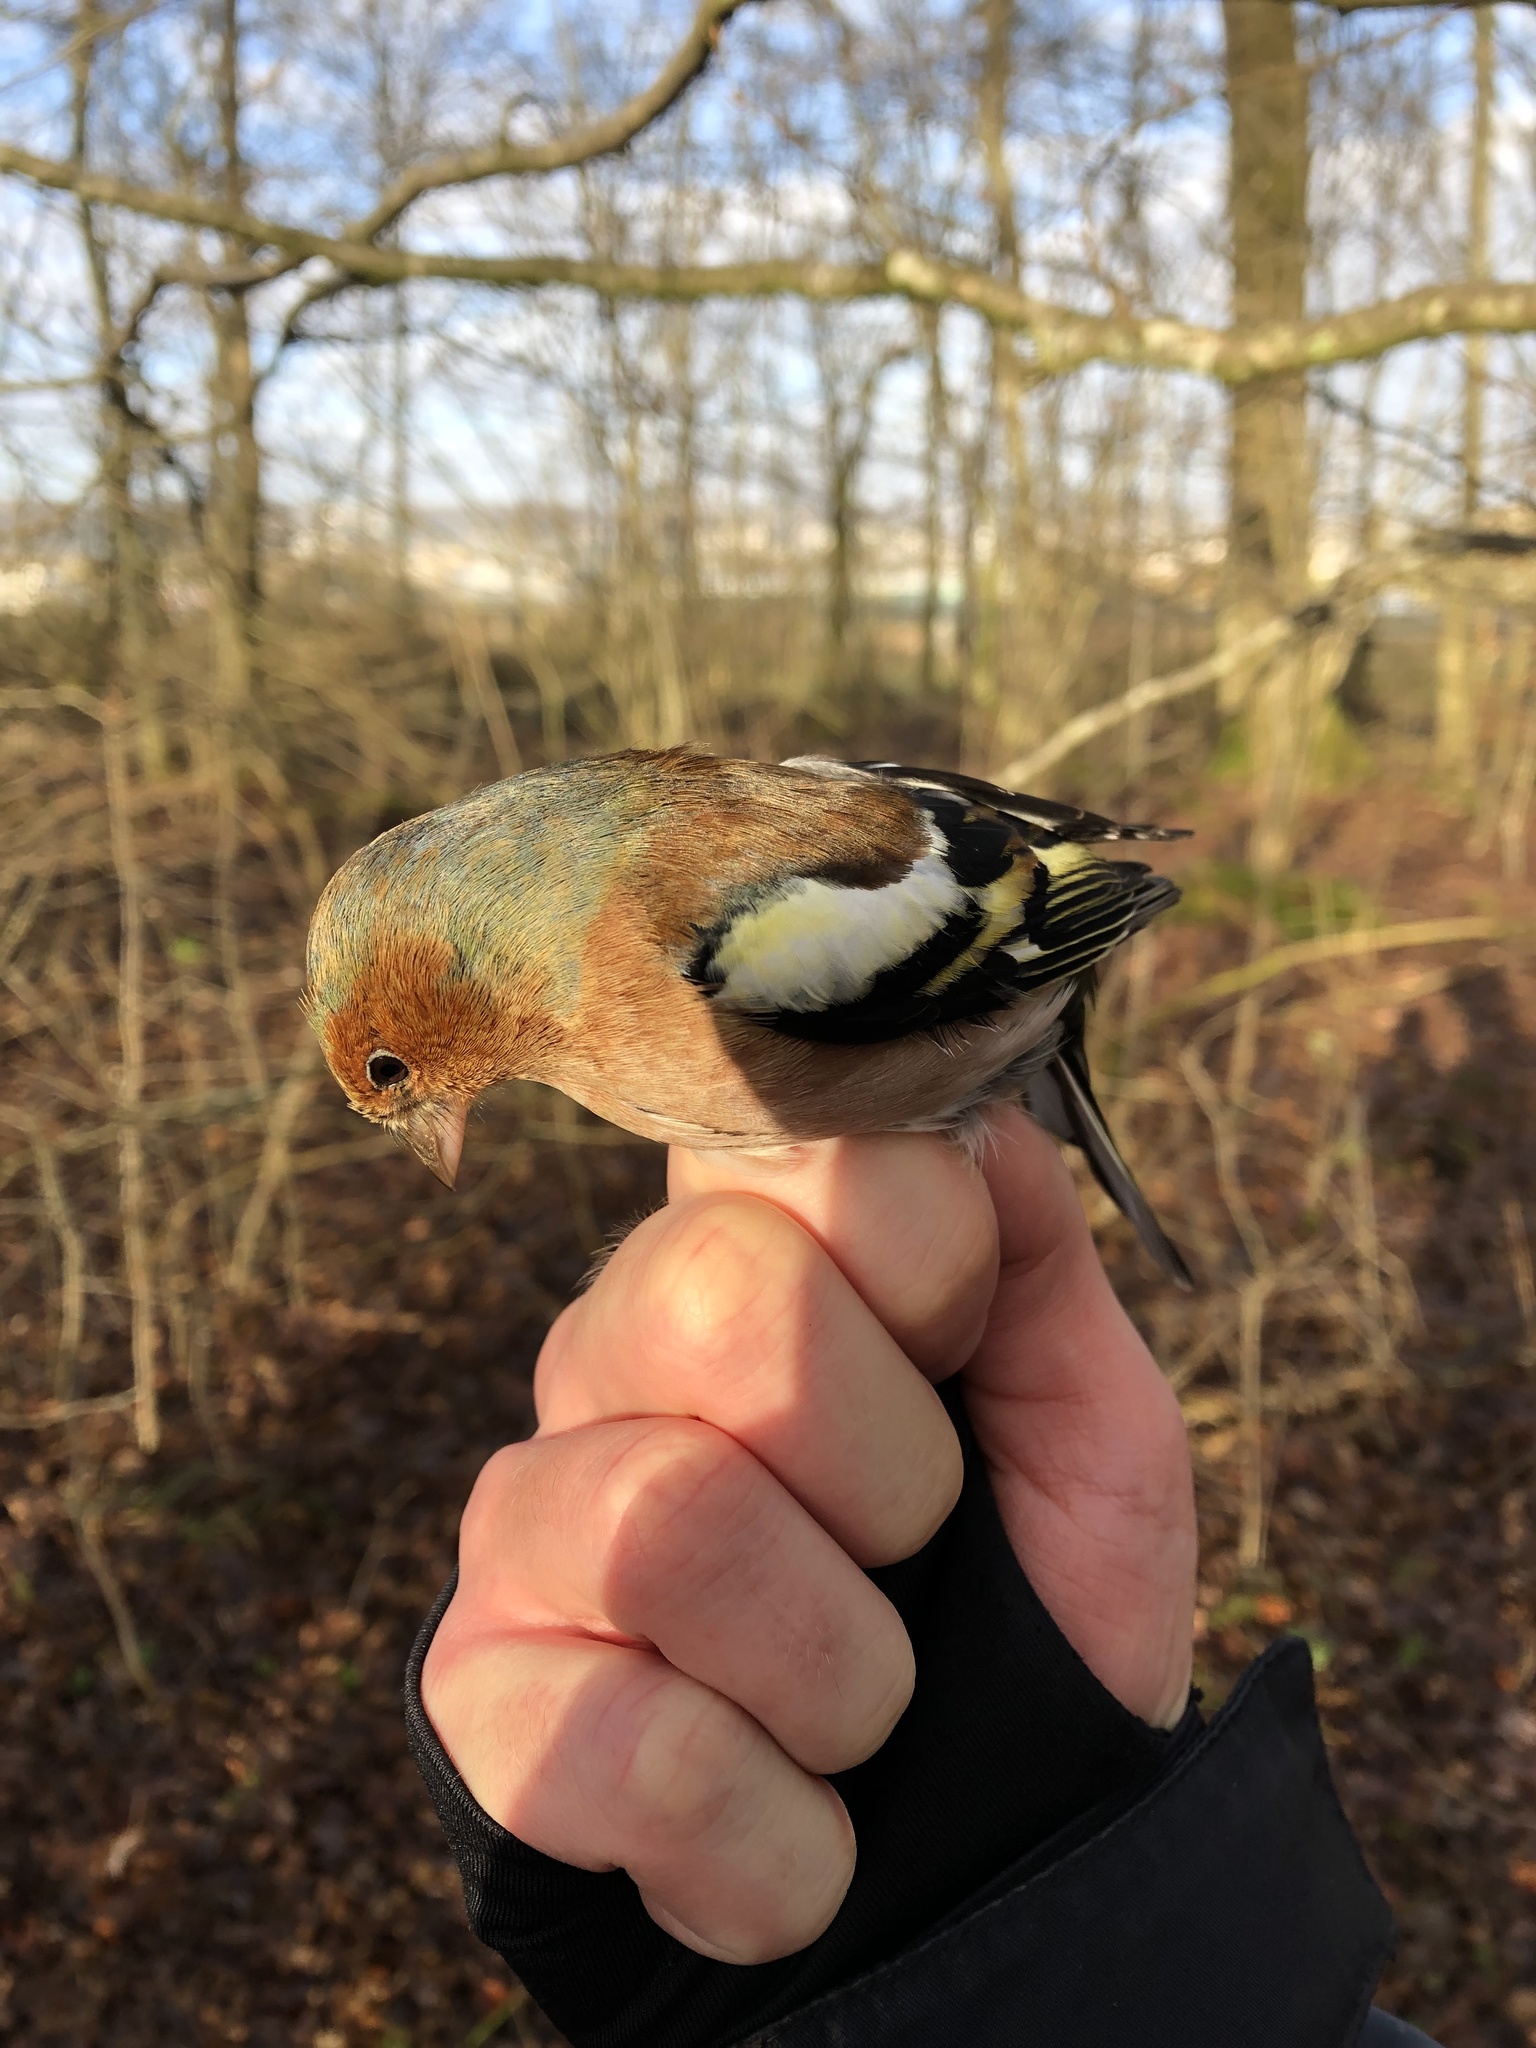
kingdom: Animalia
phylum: Chordata
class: Aves
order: Passeriformes
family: Fringillidae
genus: Fringilla
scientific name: Fringilla coelebs
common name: Common chaffinch
